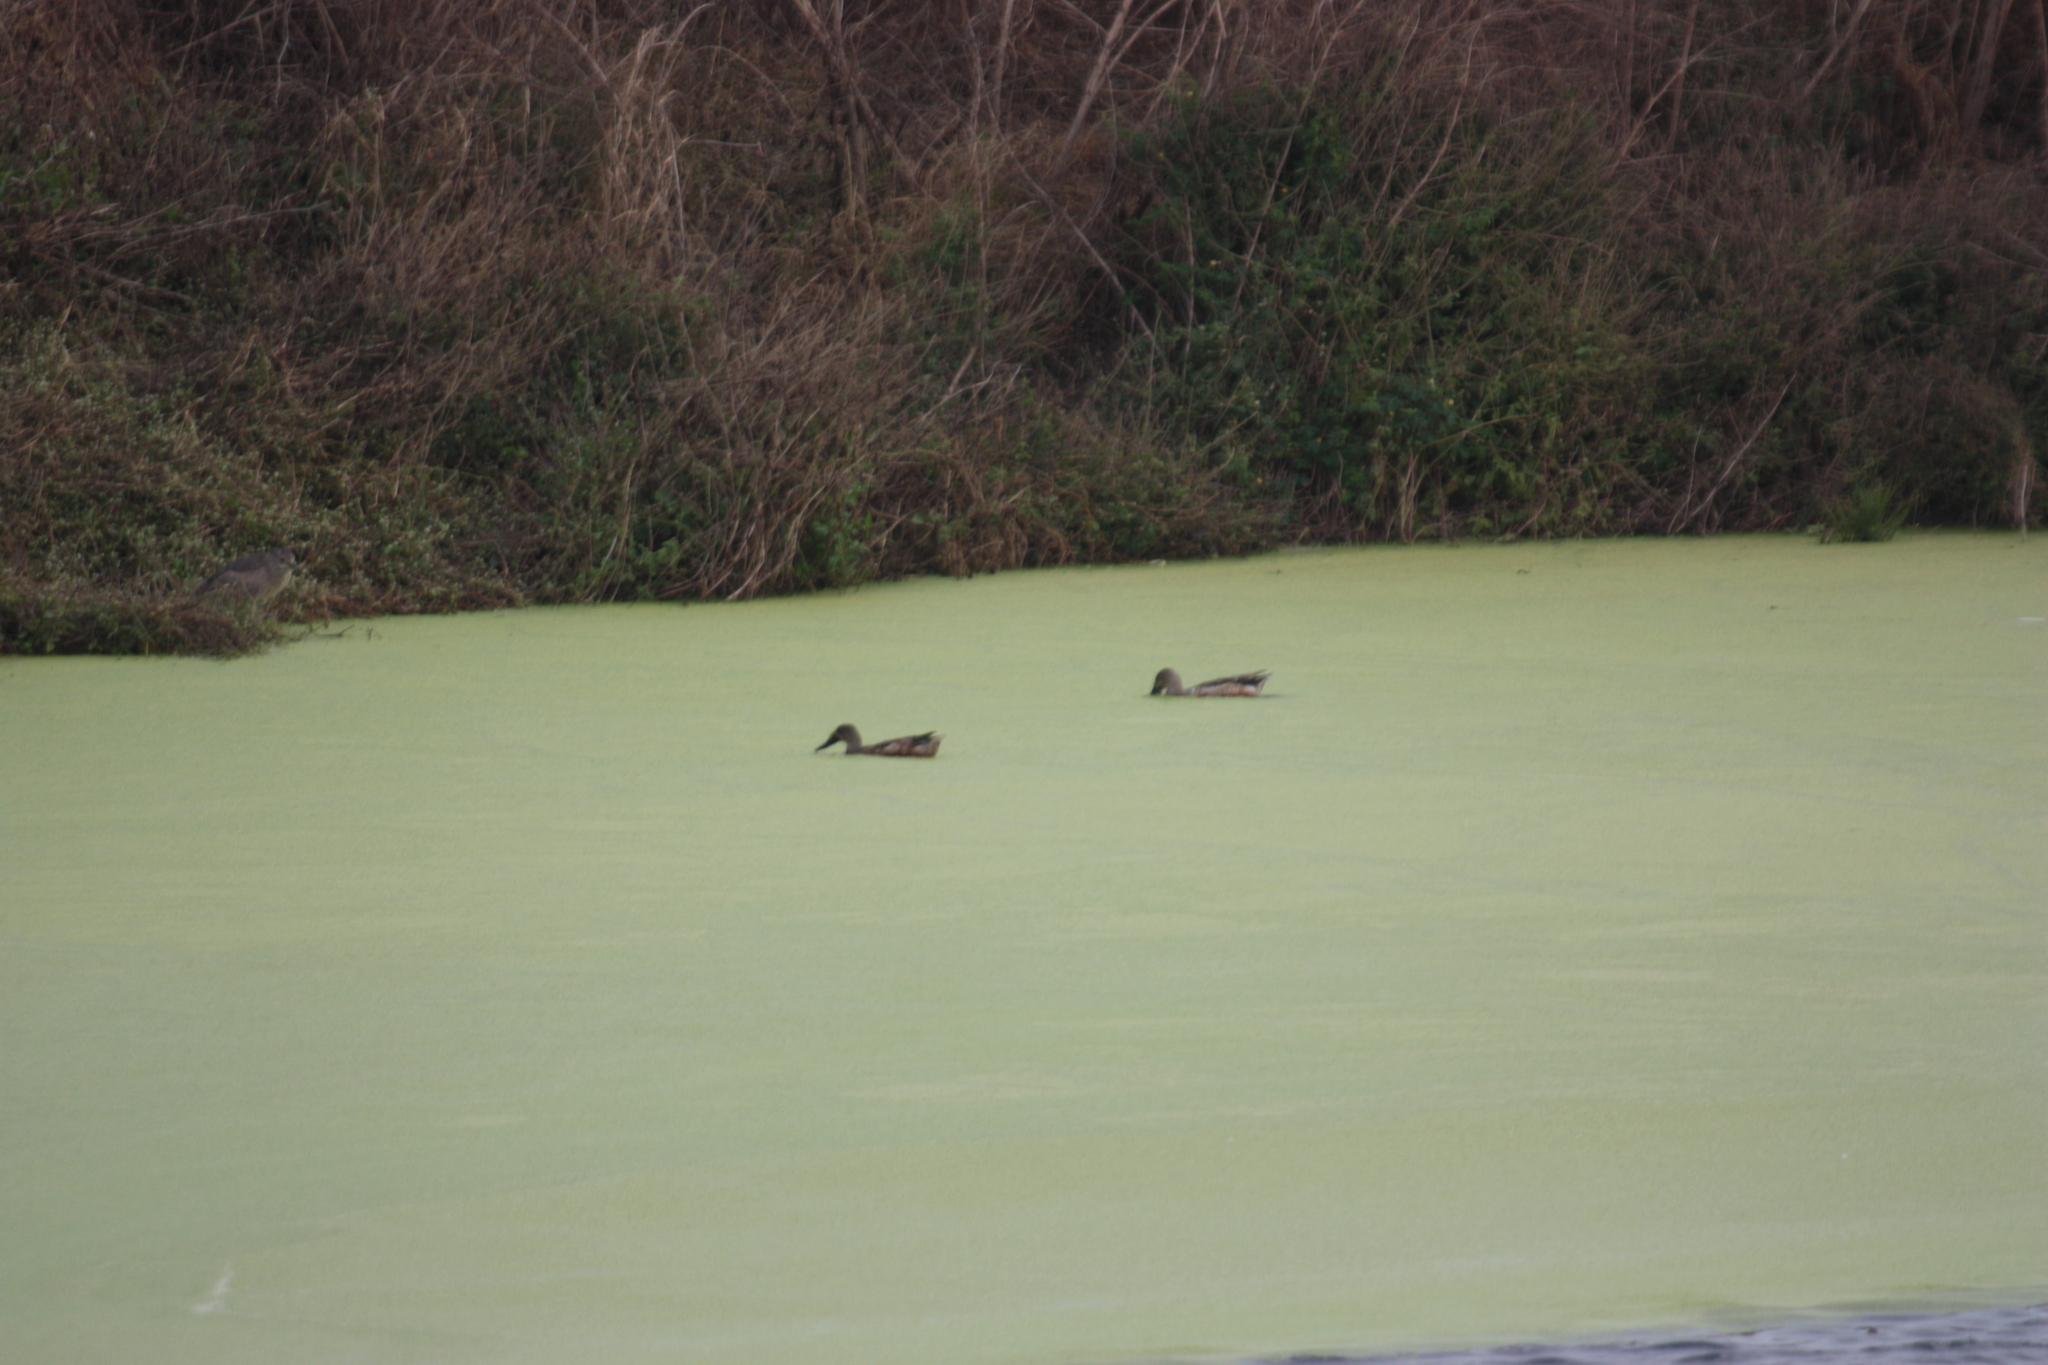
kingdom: Animalia
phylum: Chordata
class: Aves
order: Anseriformes
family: Anatidae
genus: Spatula
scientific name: Spatula clypeata
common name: Northern shoveler
